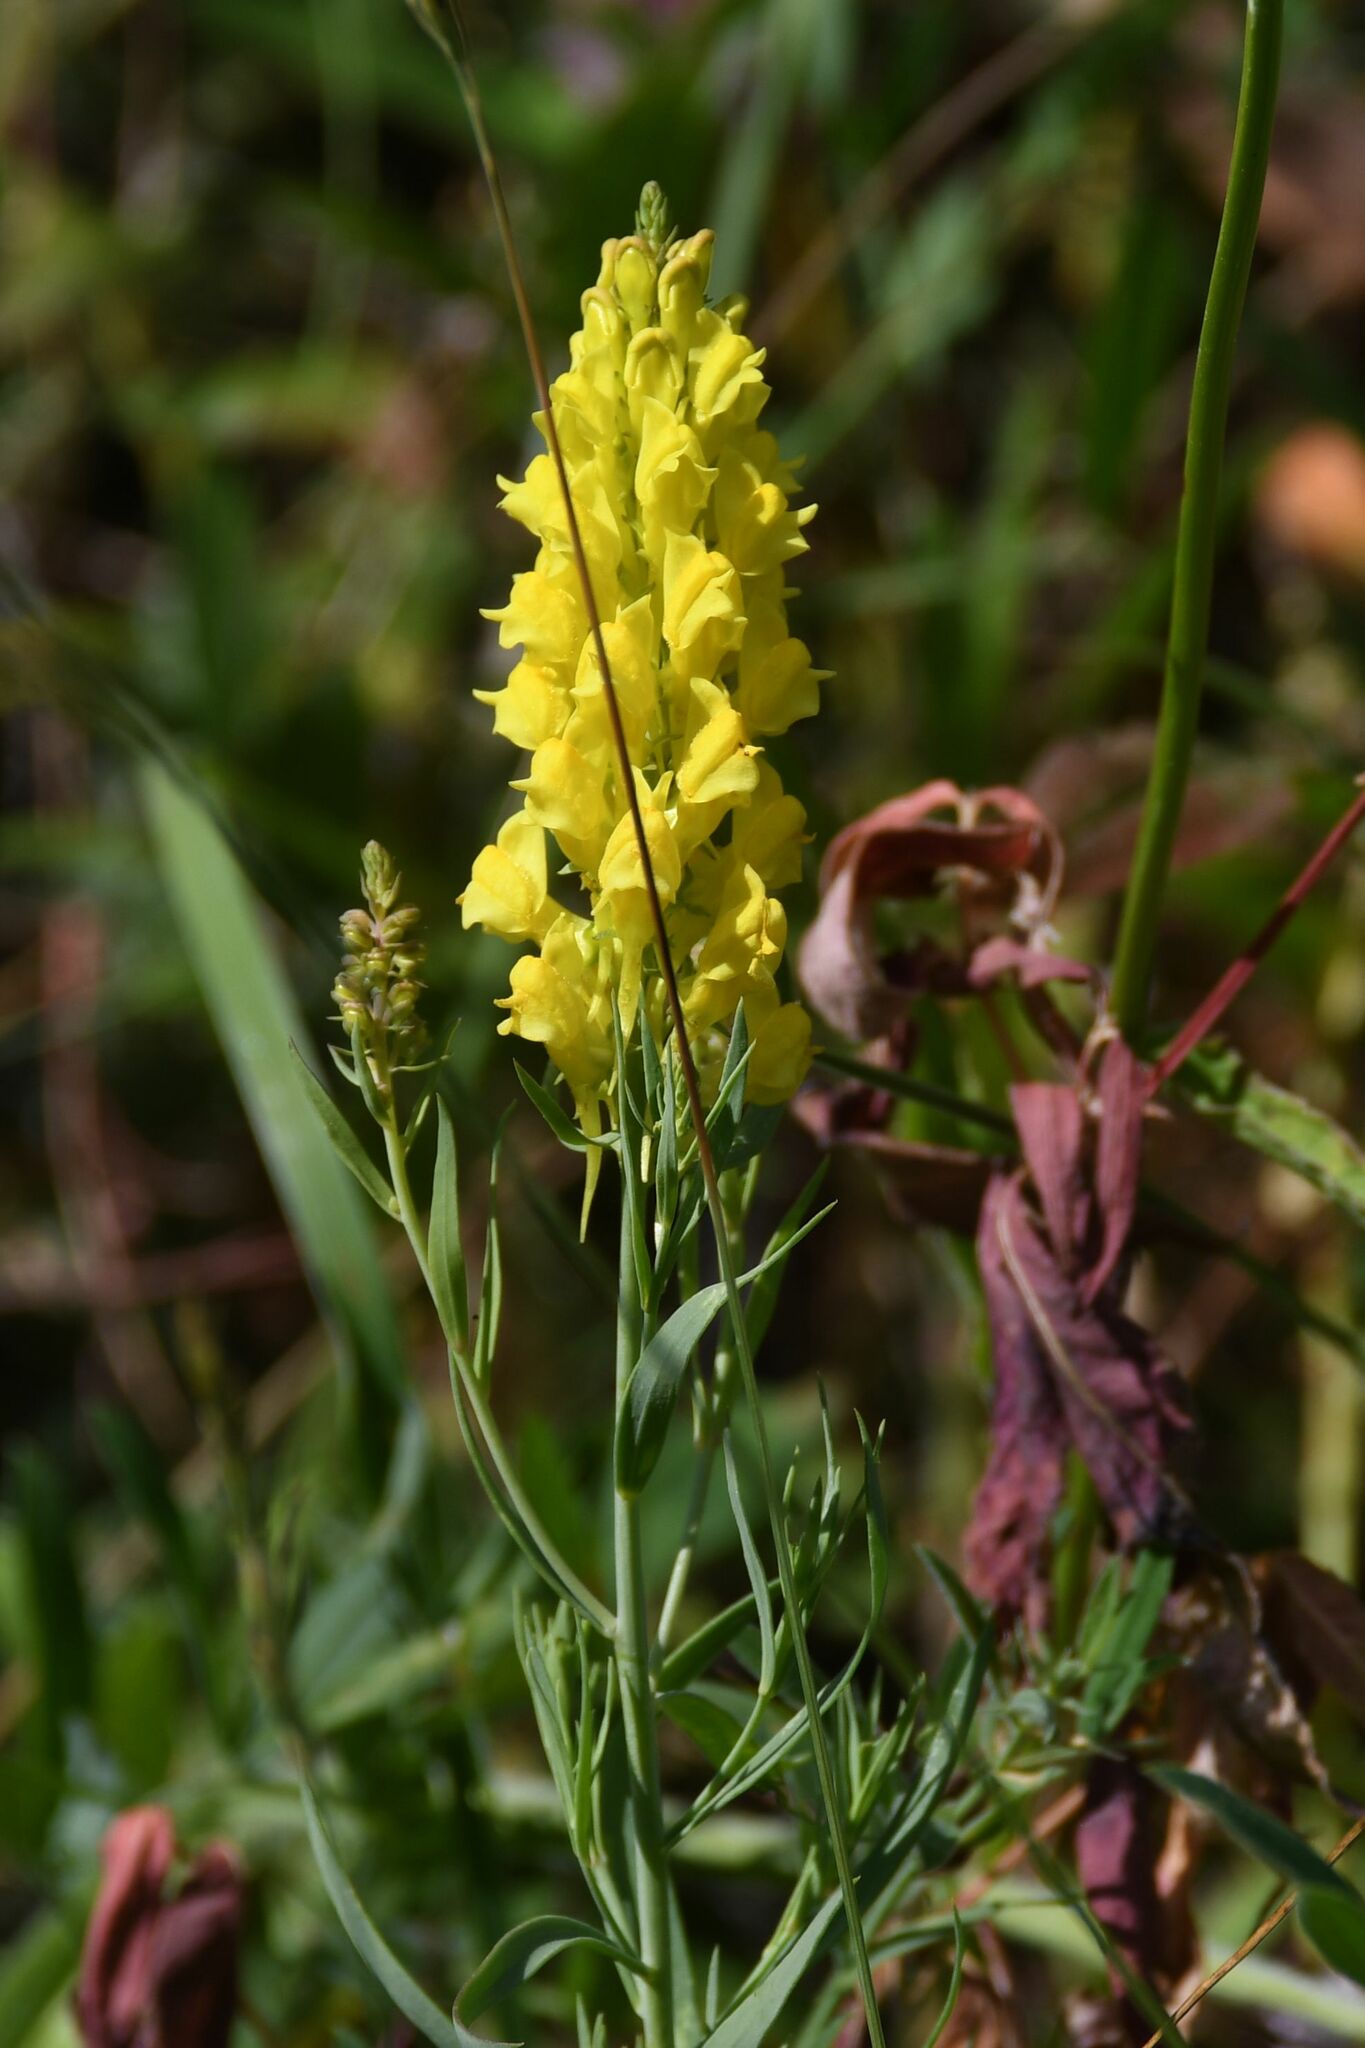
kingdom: Plantae
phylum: Tracheophyta
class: Magnoliopsida
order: Lamiales
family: Plantaginaceae
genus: Linaria
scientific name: Linaria angustissima
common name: Italian toadflax
